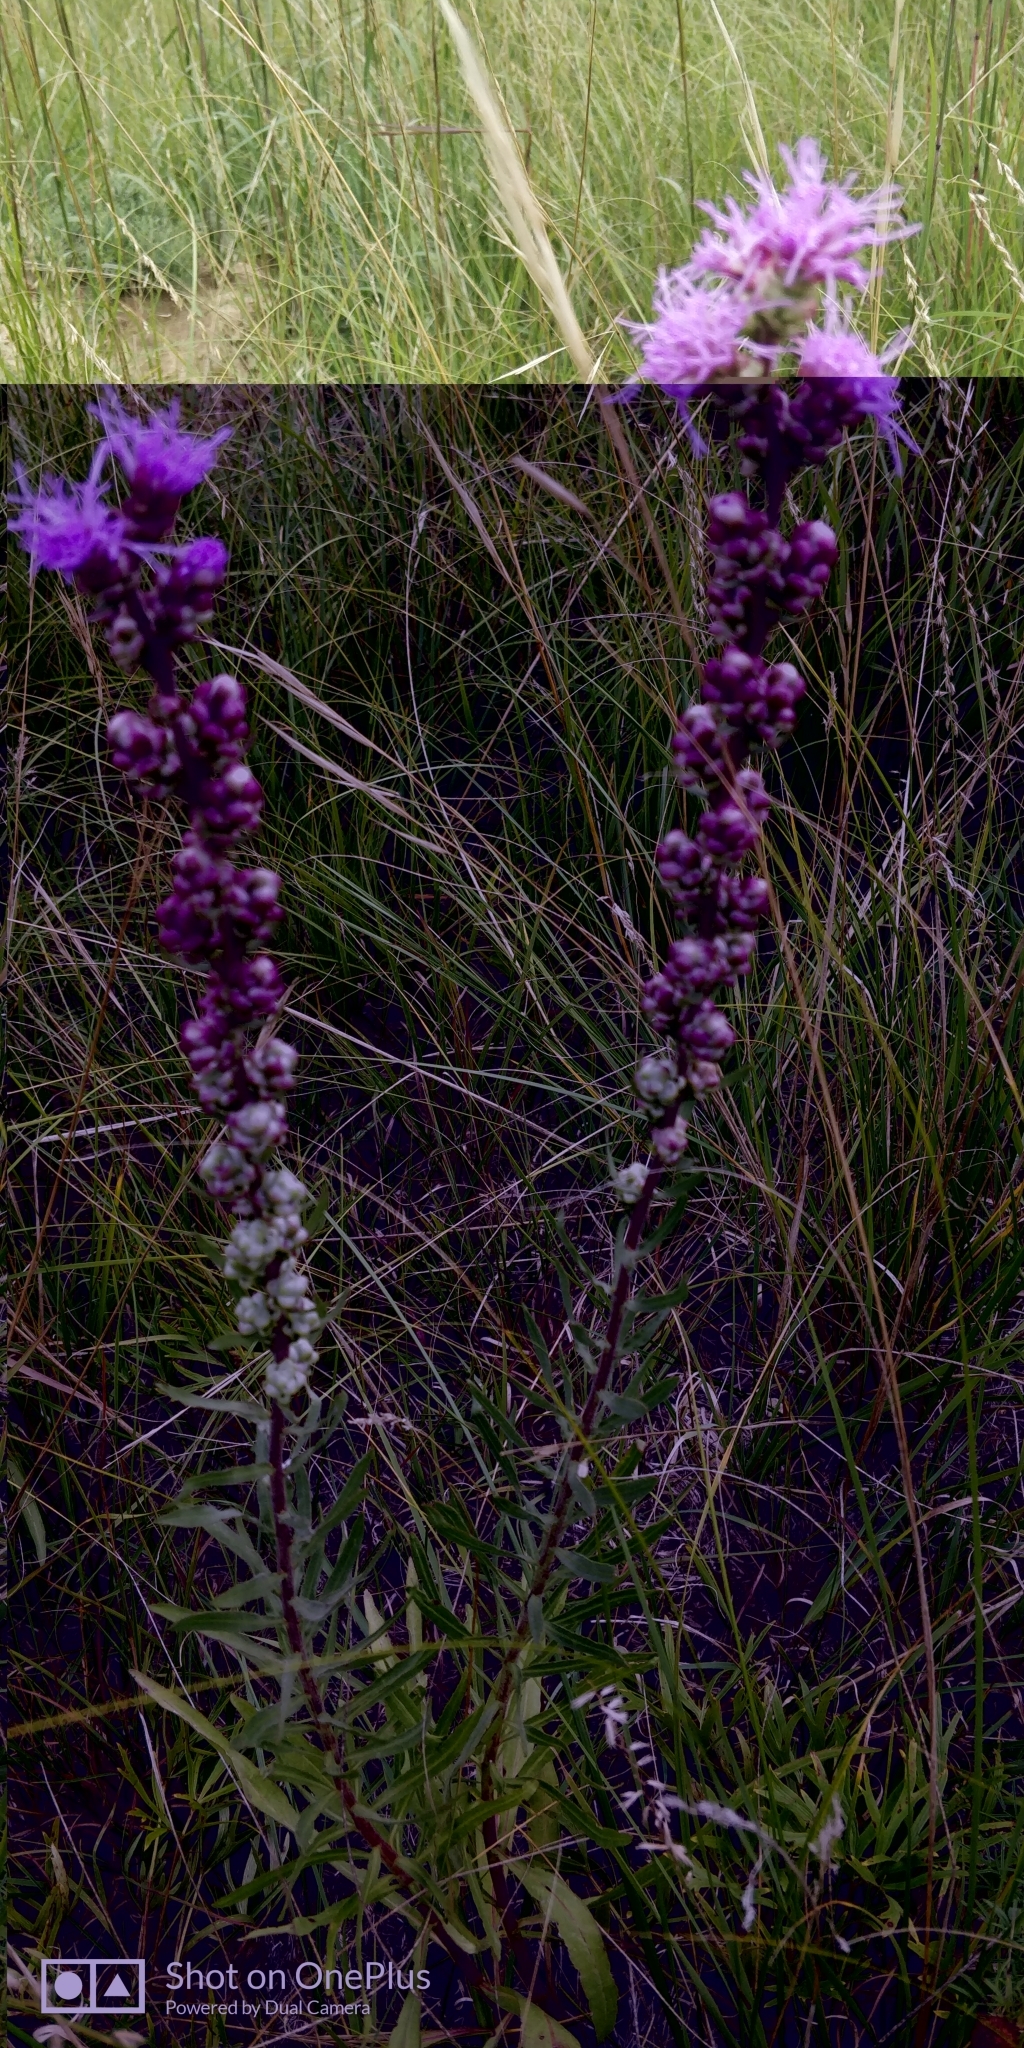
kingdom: Plantae
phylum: Tracheophyta
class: Magnoliopsida
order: Asterales
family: Asteraceae
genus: Liatris
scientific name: Liatris aspera
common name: Lacerate blazing-star
